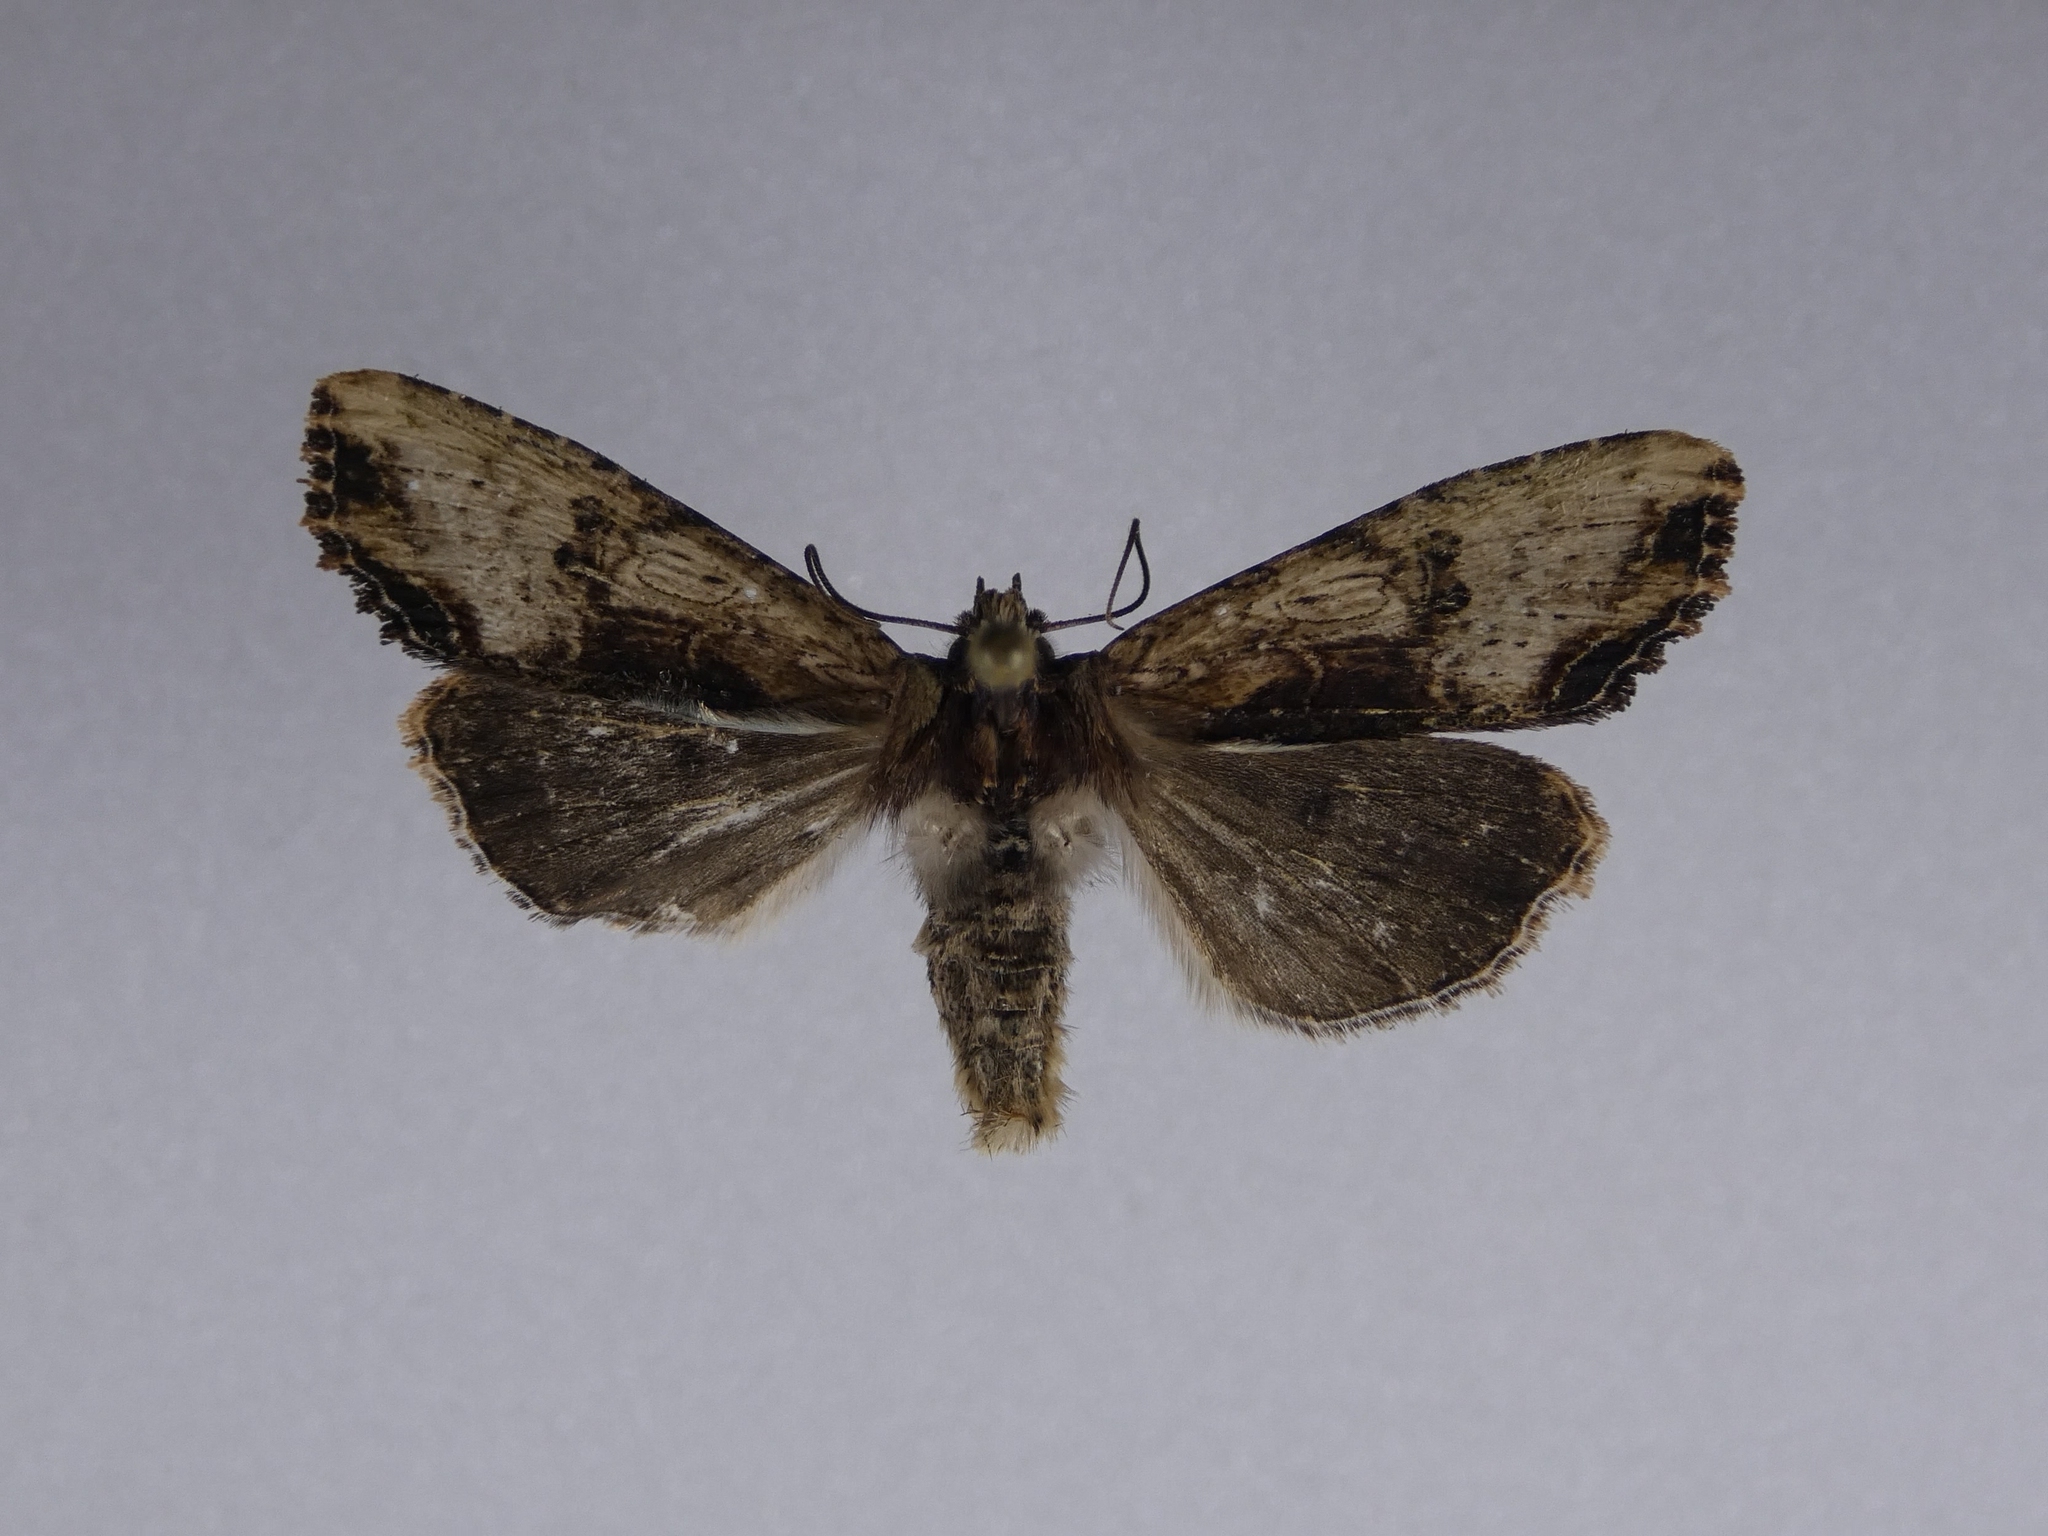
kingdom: Animalia
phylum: Arthropoda
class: Insecta
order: Lepidoptera
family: Noctuidae
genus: Meterana
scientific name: Meterana coeleno
